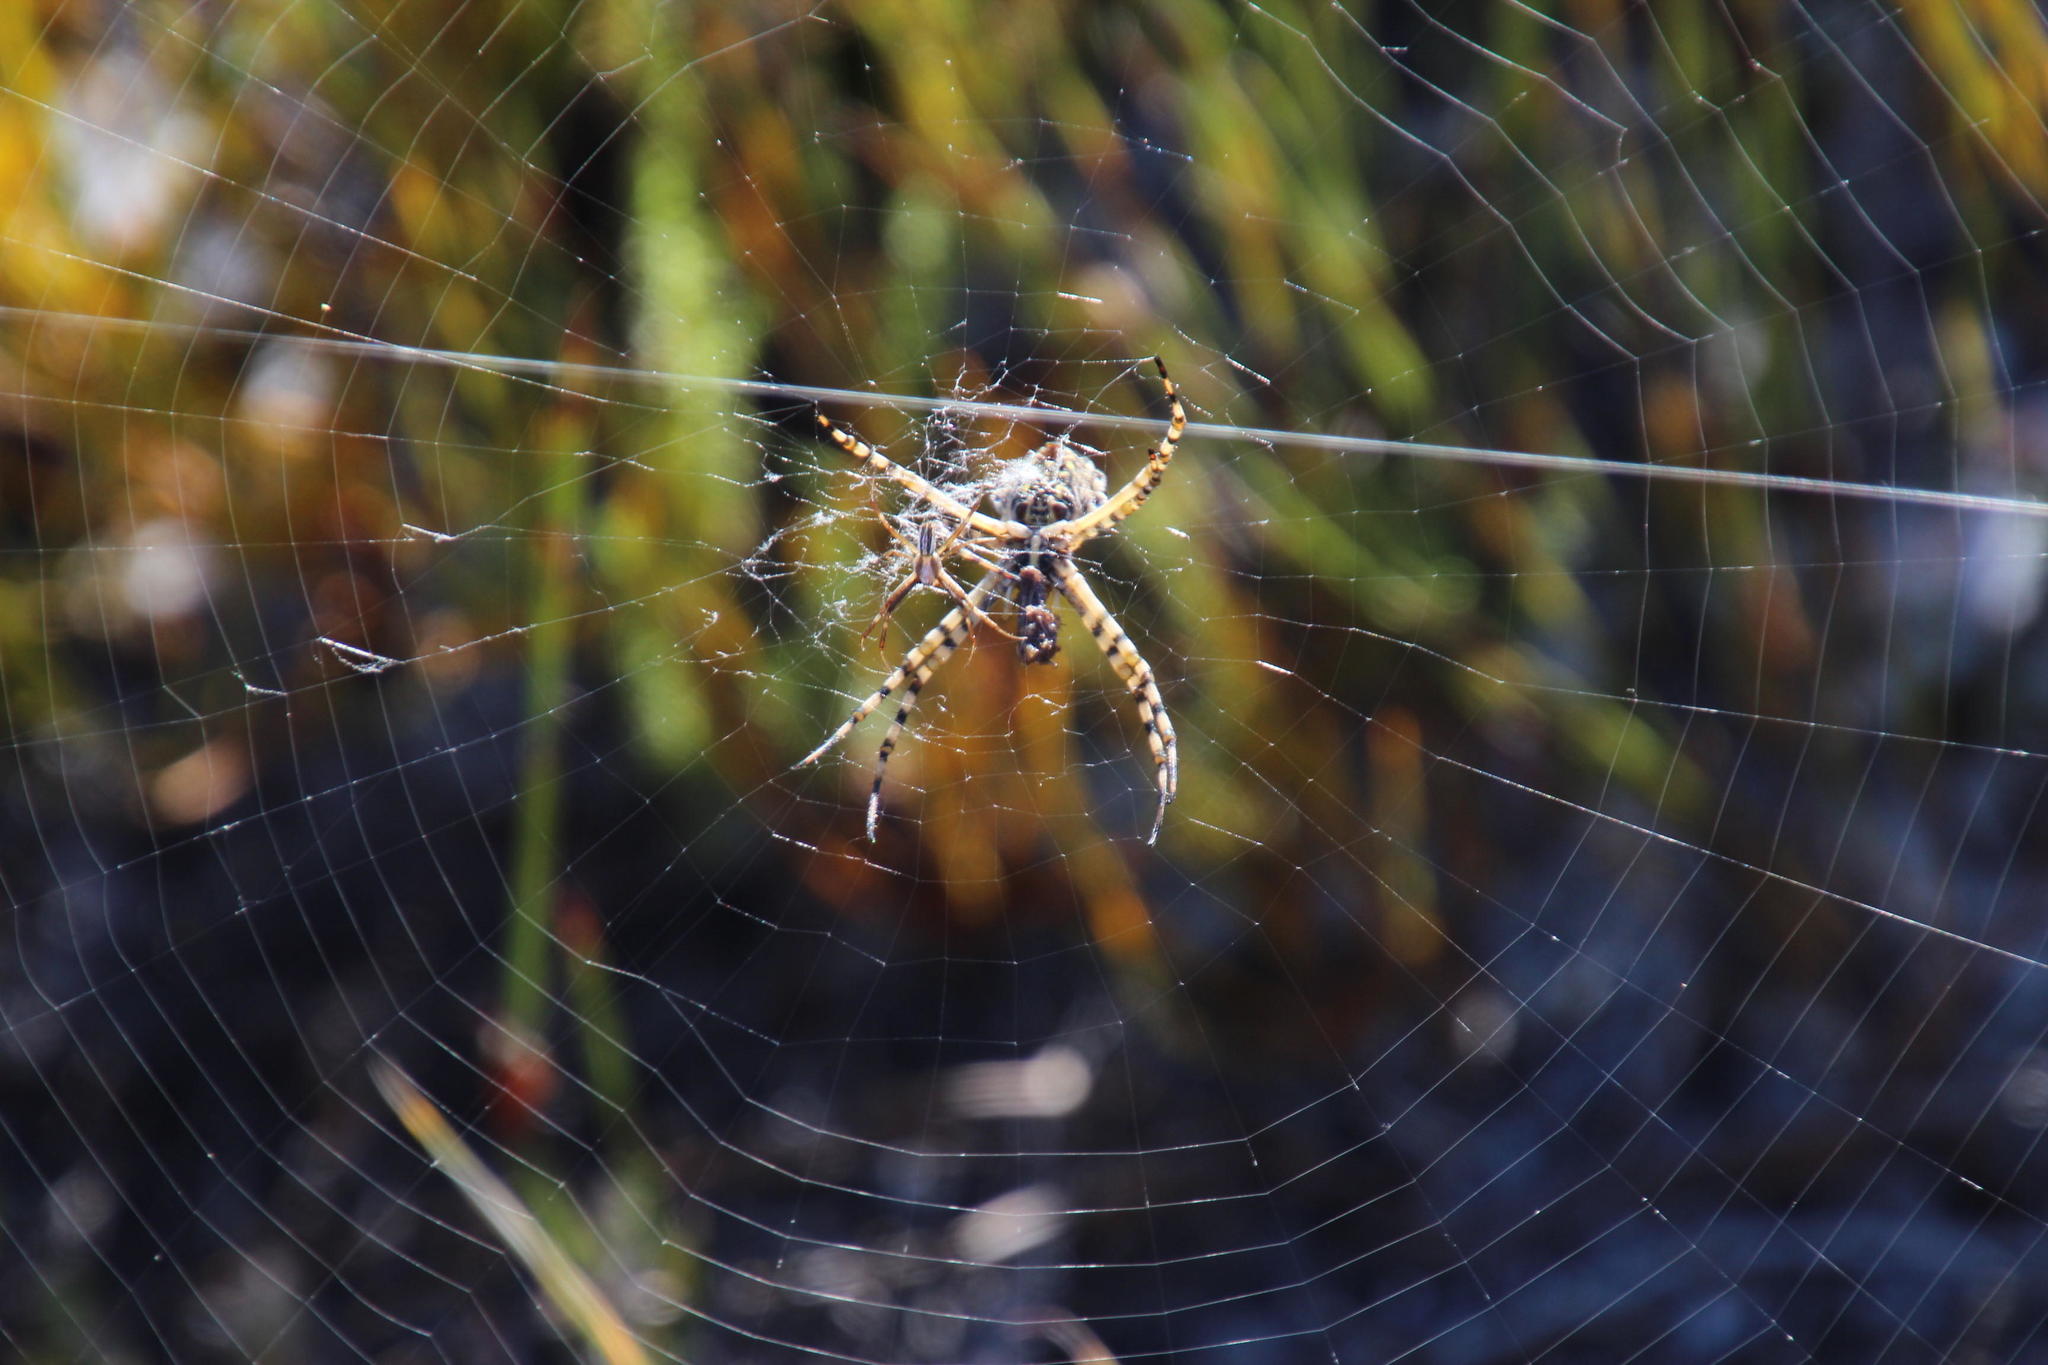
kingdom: Animalia
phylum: Arthropoda
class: Arachnida
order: Araneae
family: Araneidae
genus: Argiope
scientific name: Argiope australis
